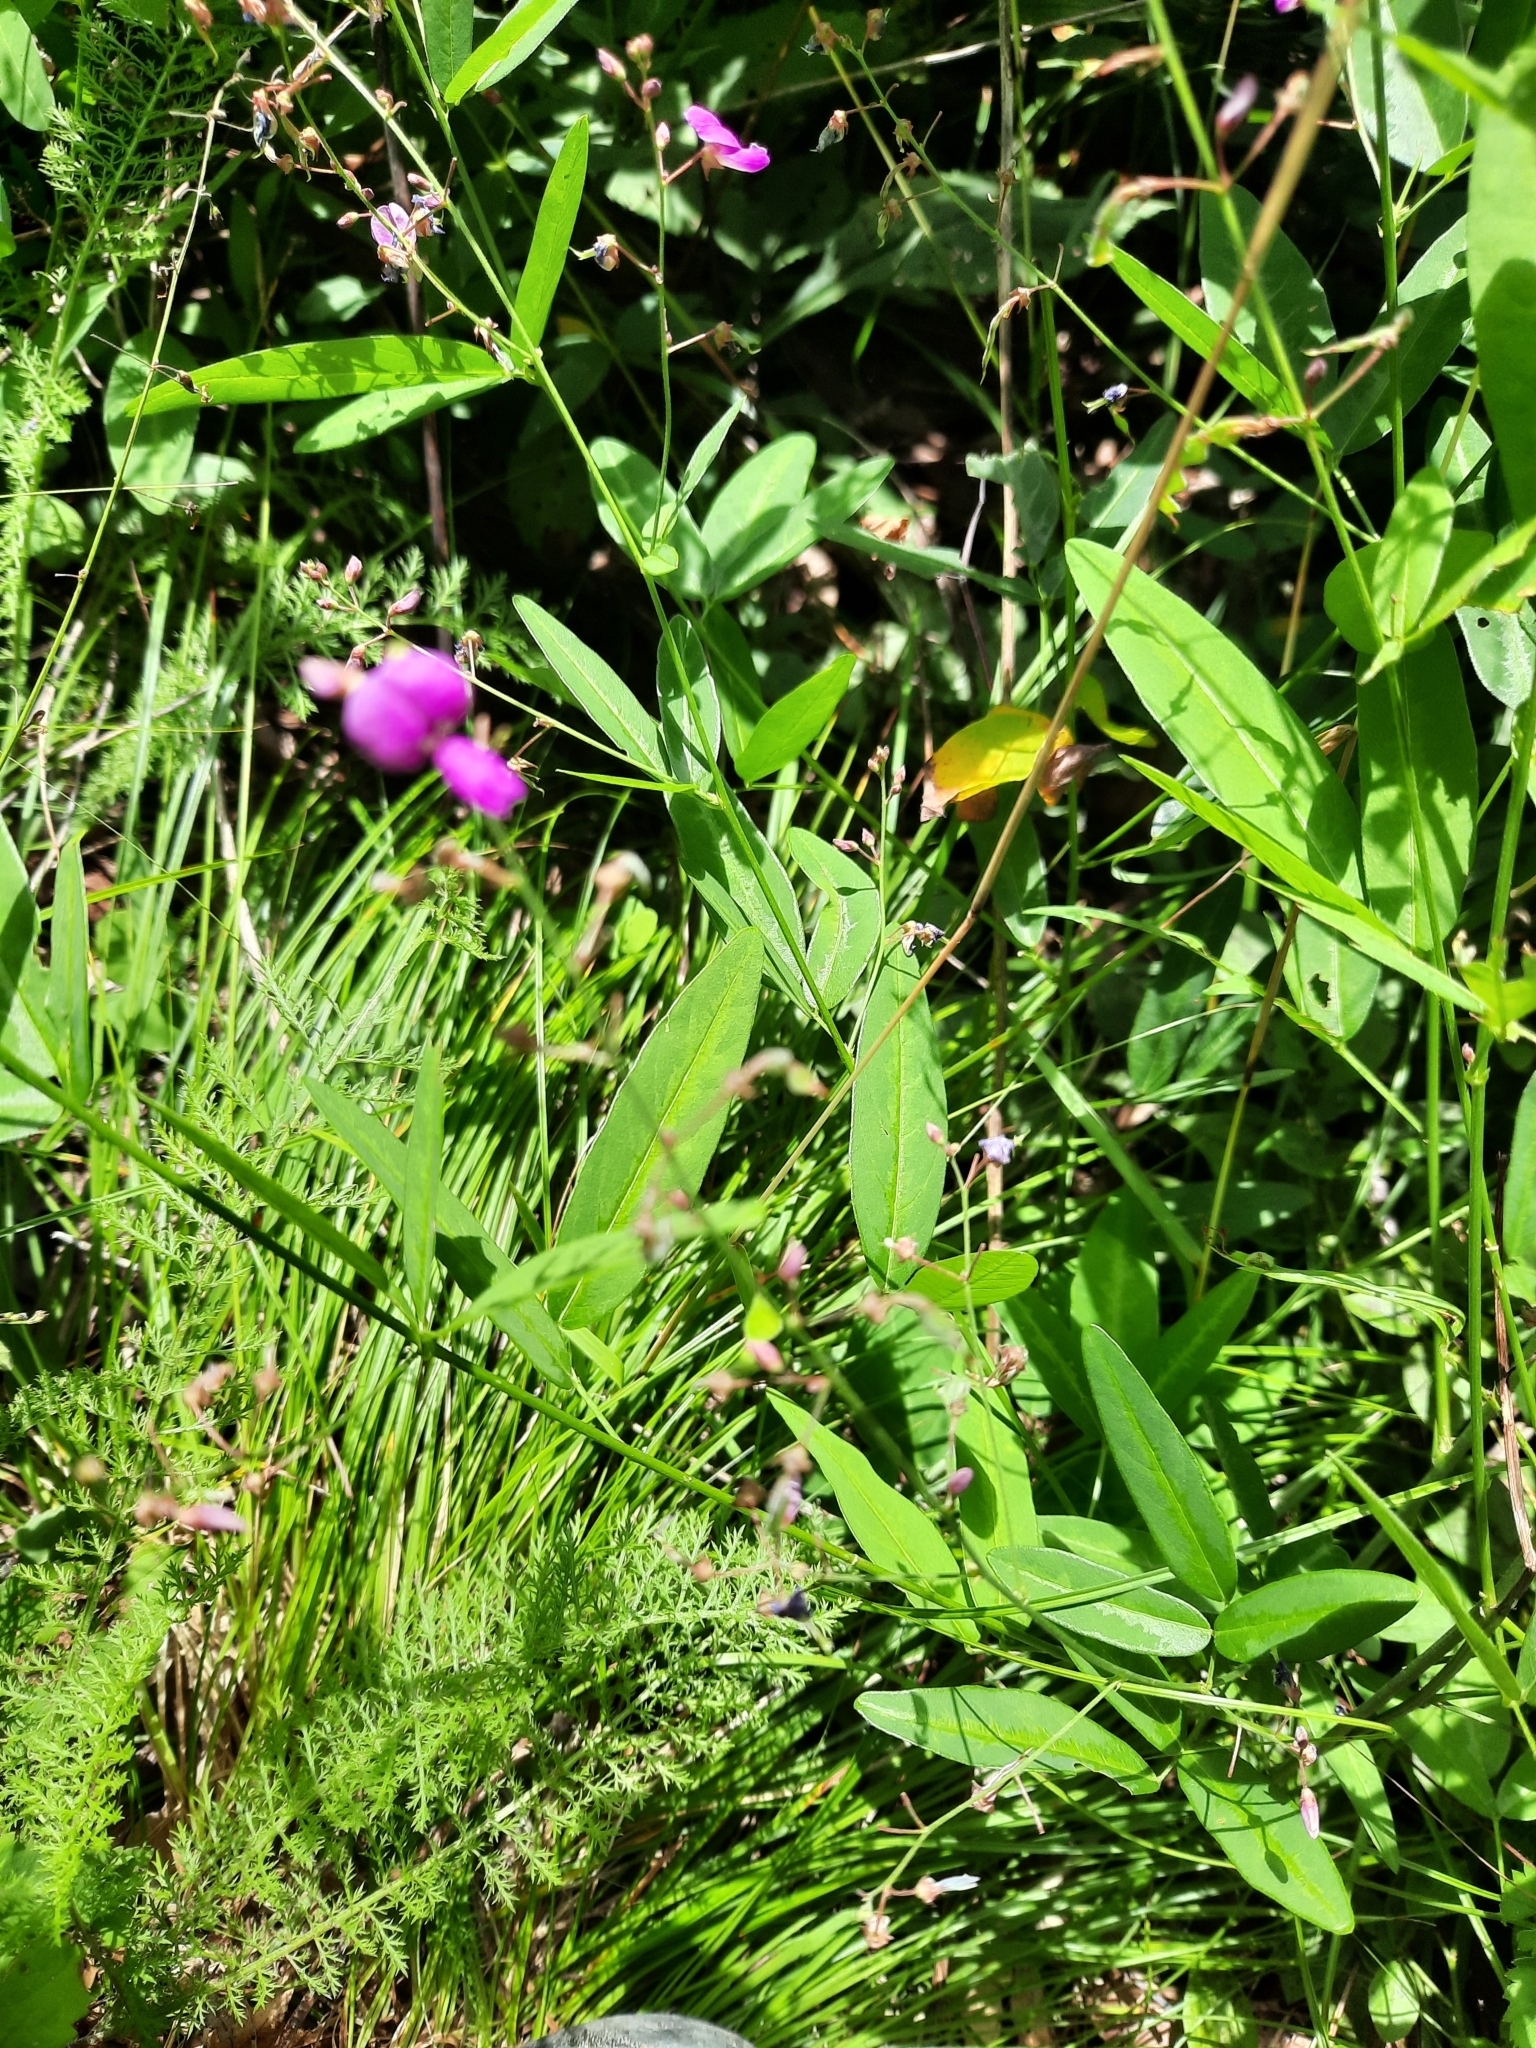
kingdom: Plantae
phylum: Tracheophyta
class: Magnoliopsida
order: Fabales
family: Fabaceae
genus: Desmodium
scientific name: Desmodium paniculatum
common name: Panicled tick-clover
